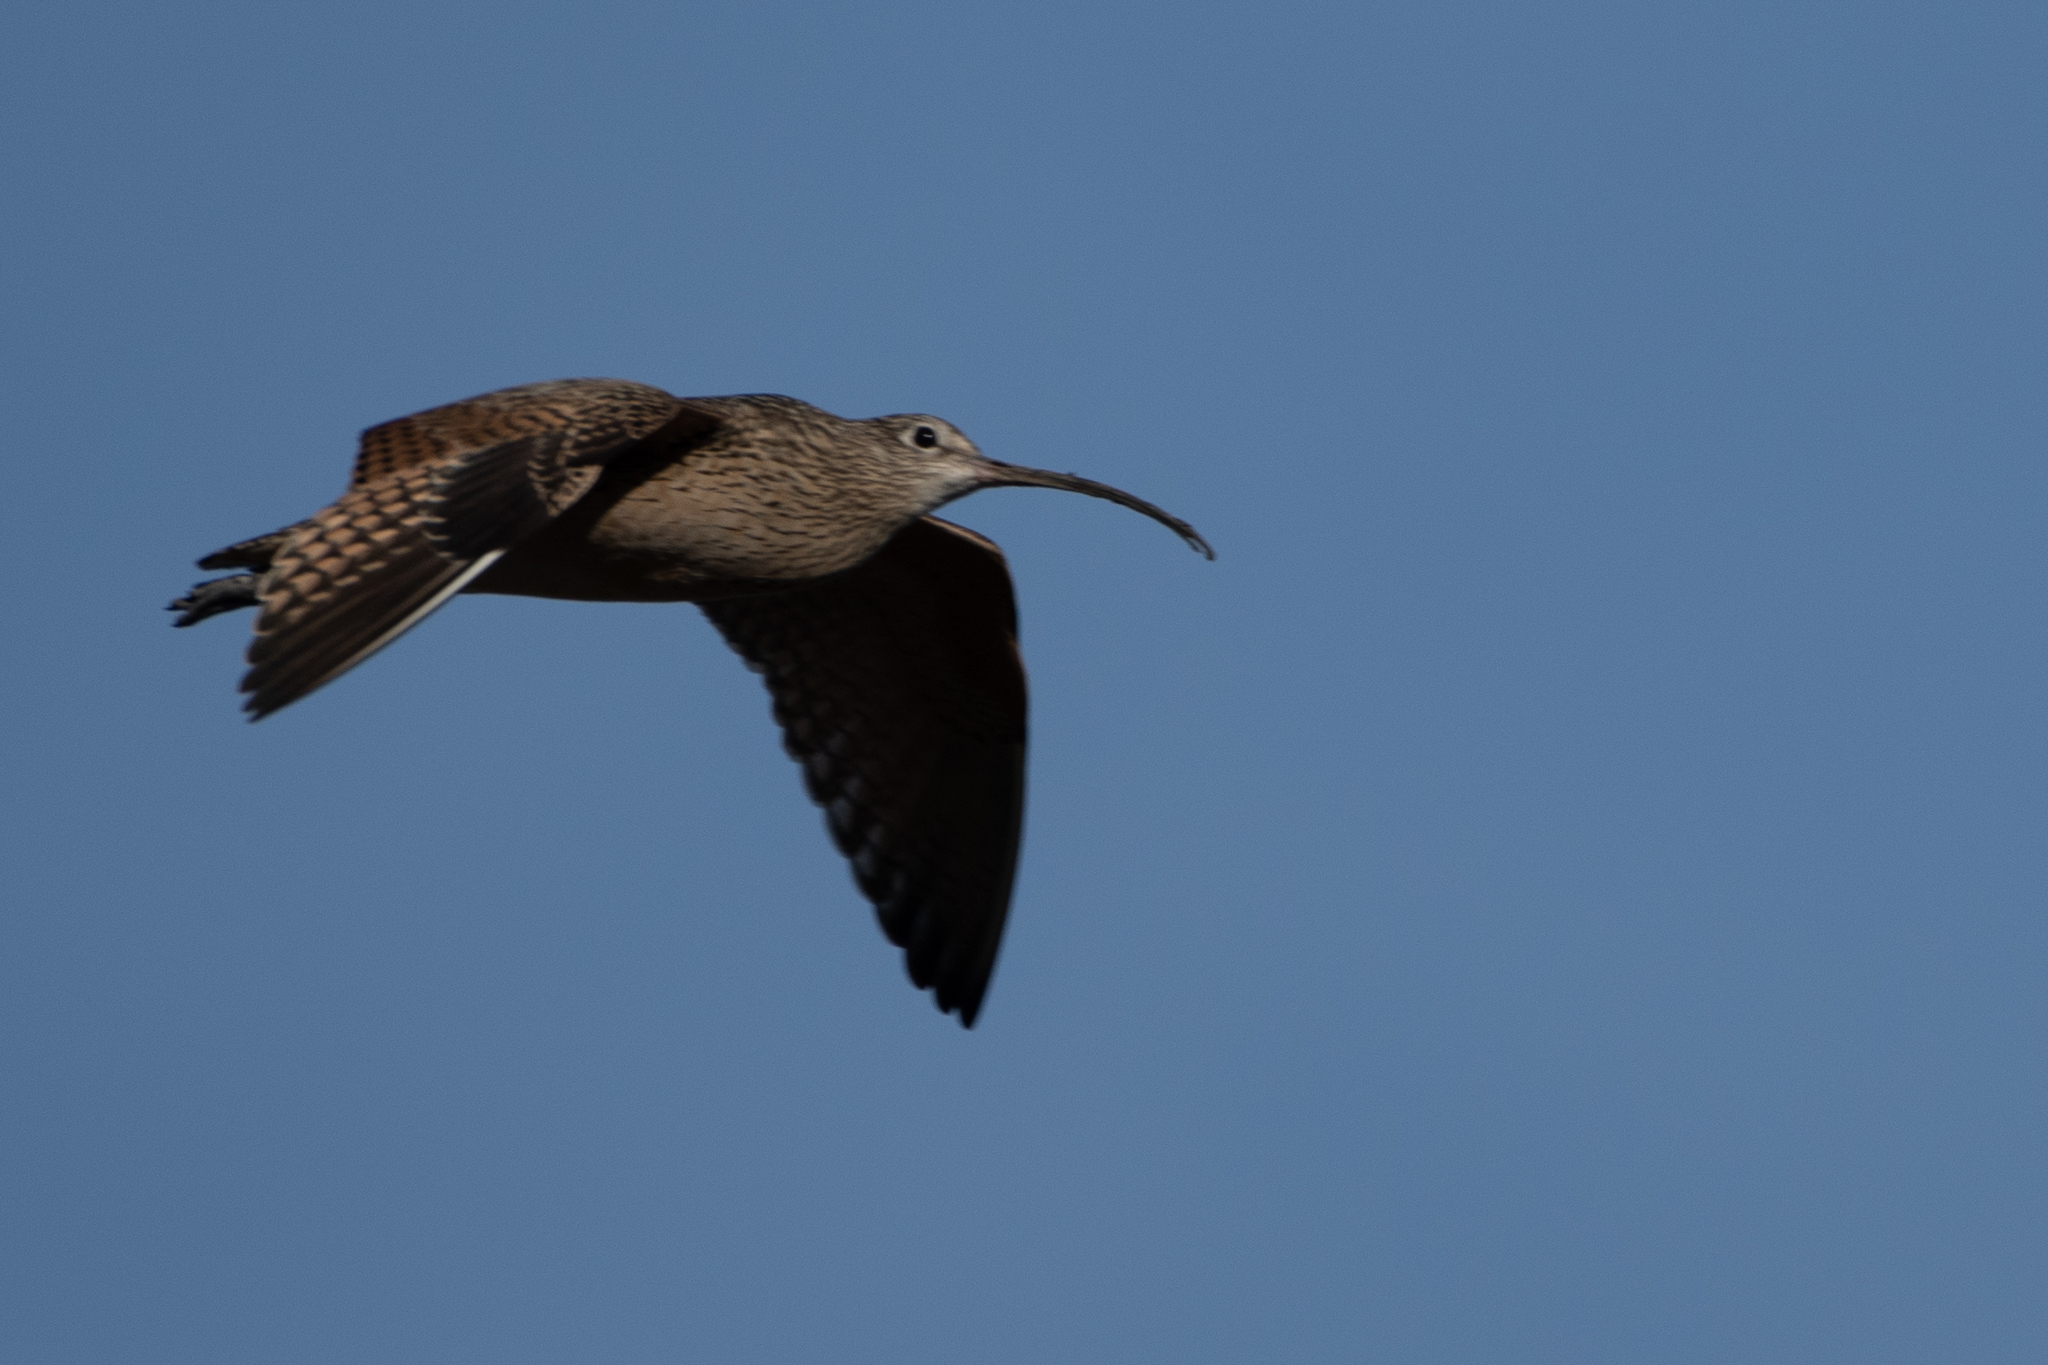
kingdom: Animalia
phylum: Chordata
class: Aves
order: Charadriiformes
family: Scolopacidae
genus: Numenius
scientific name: Numenius americanus
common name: Long-billed curlew
